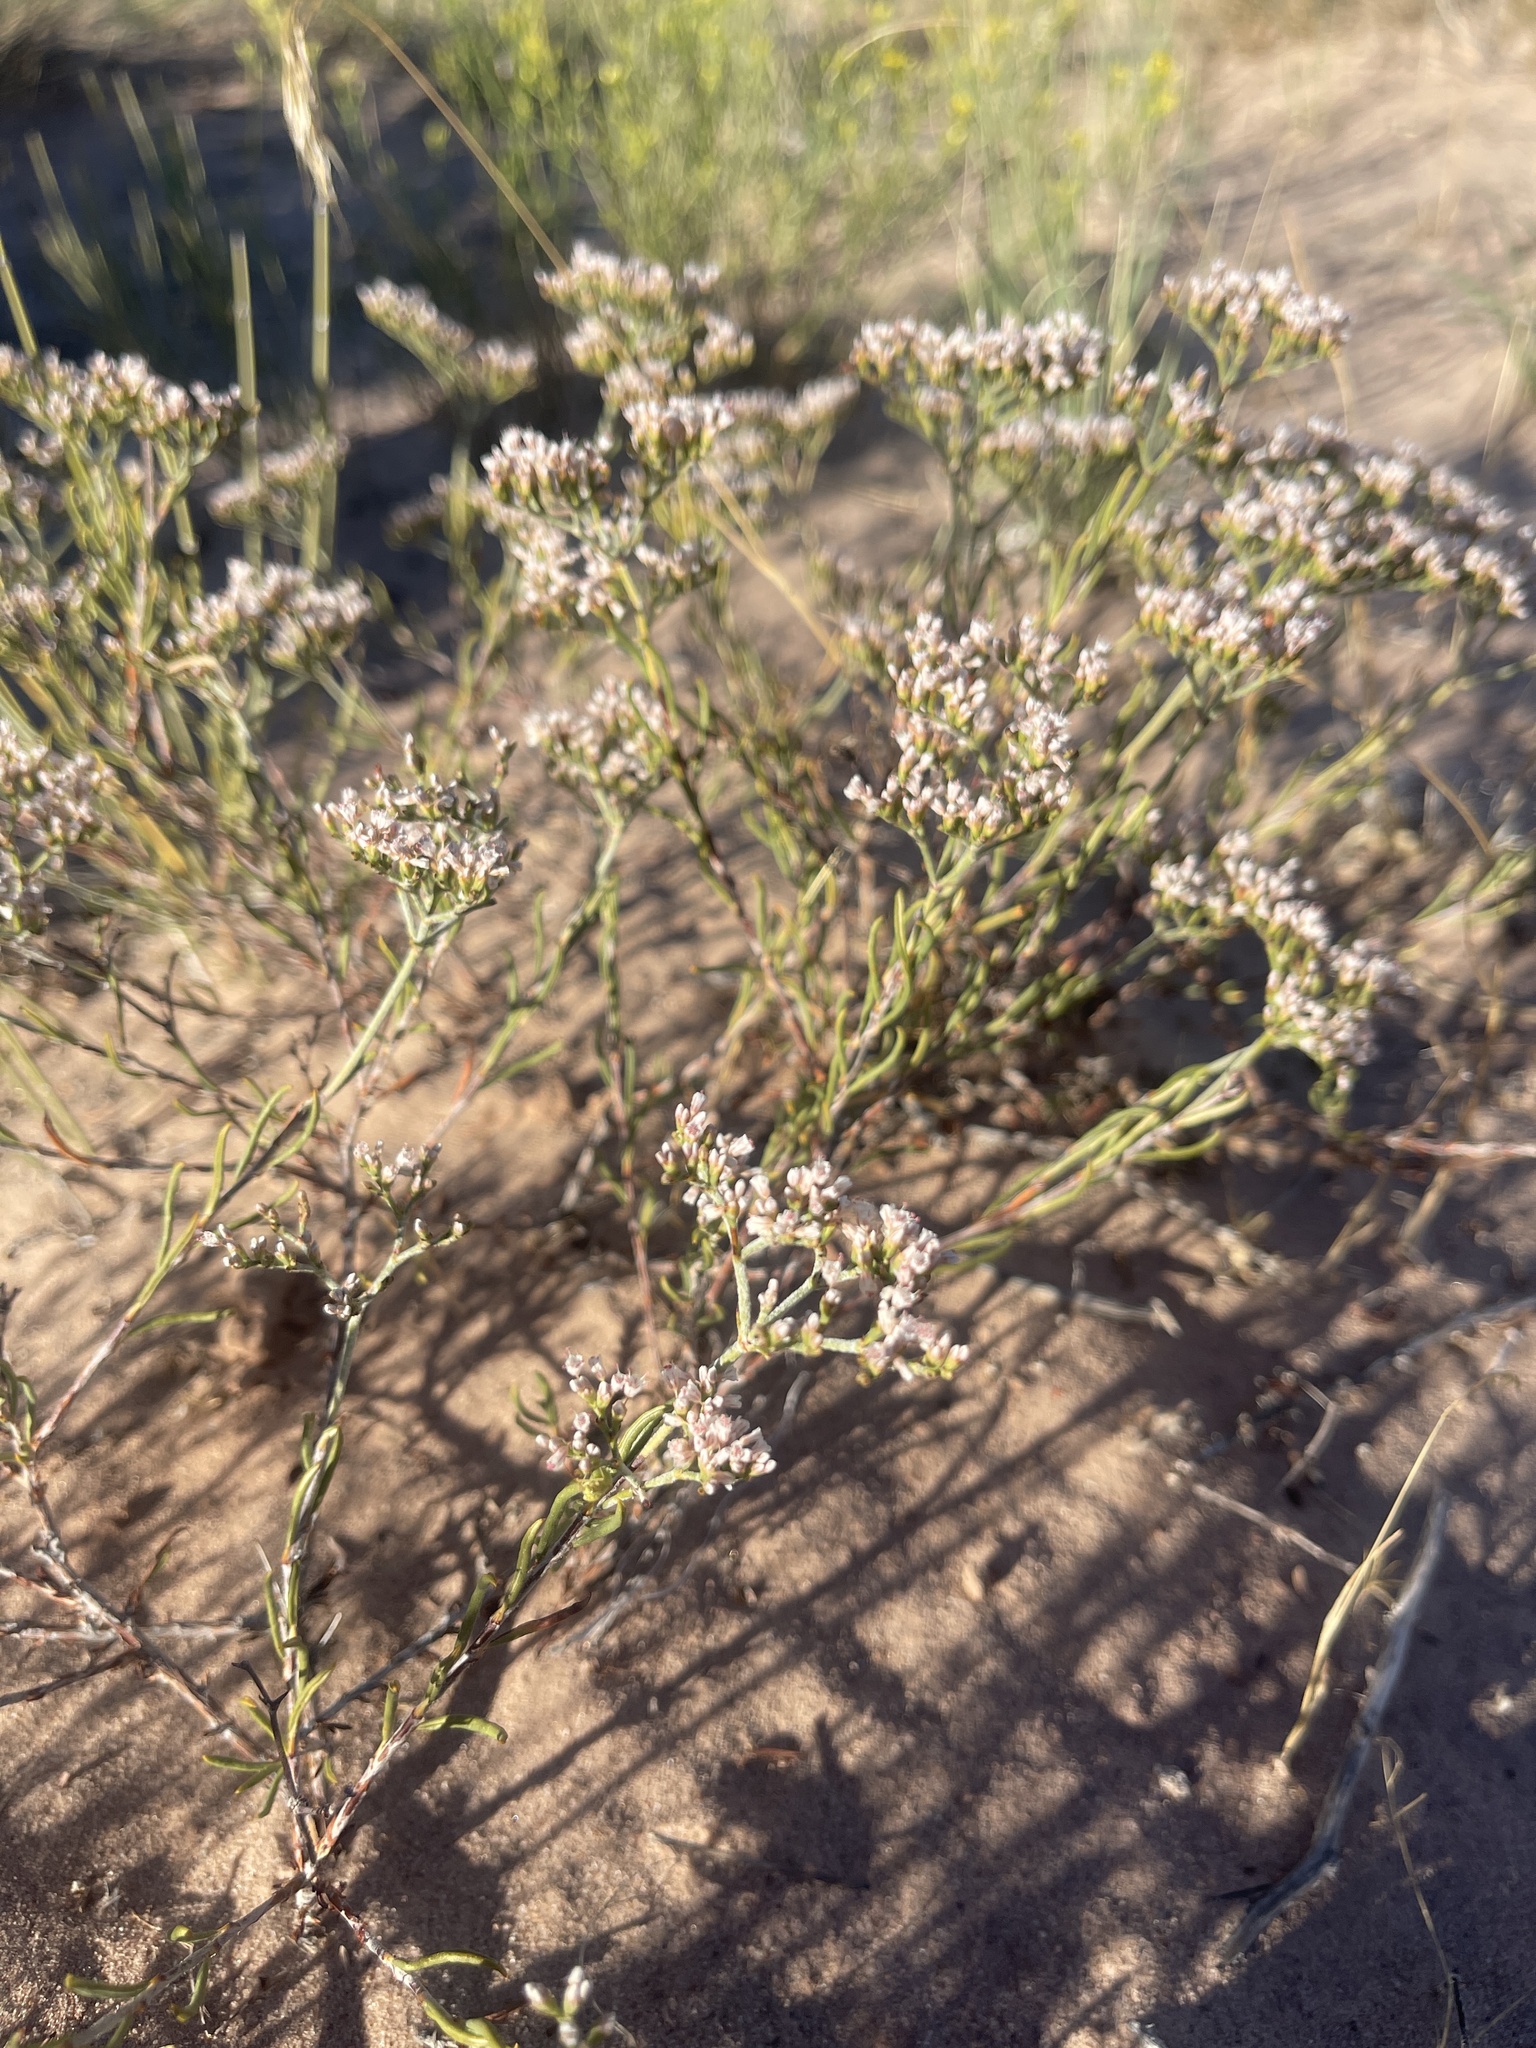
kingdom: Plantae
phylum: Tracheophyta
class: Magnoliopsida
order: Caryophyllales
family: Polygonaceae
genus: Eriogonum
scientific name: Eriogonum microtheca
